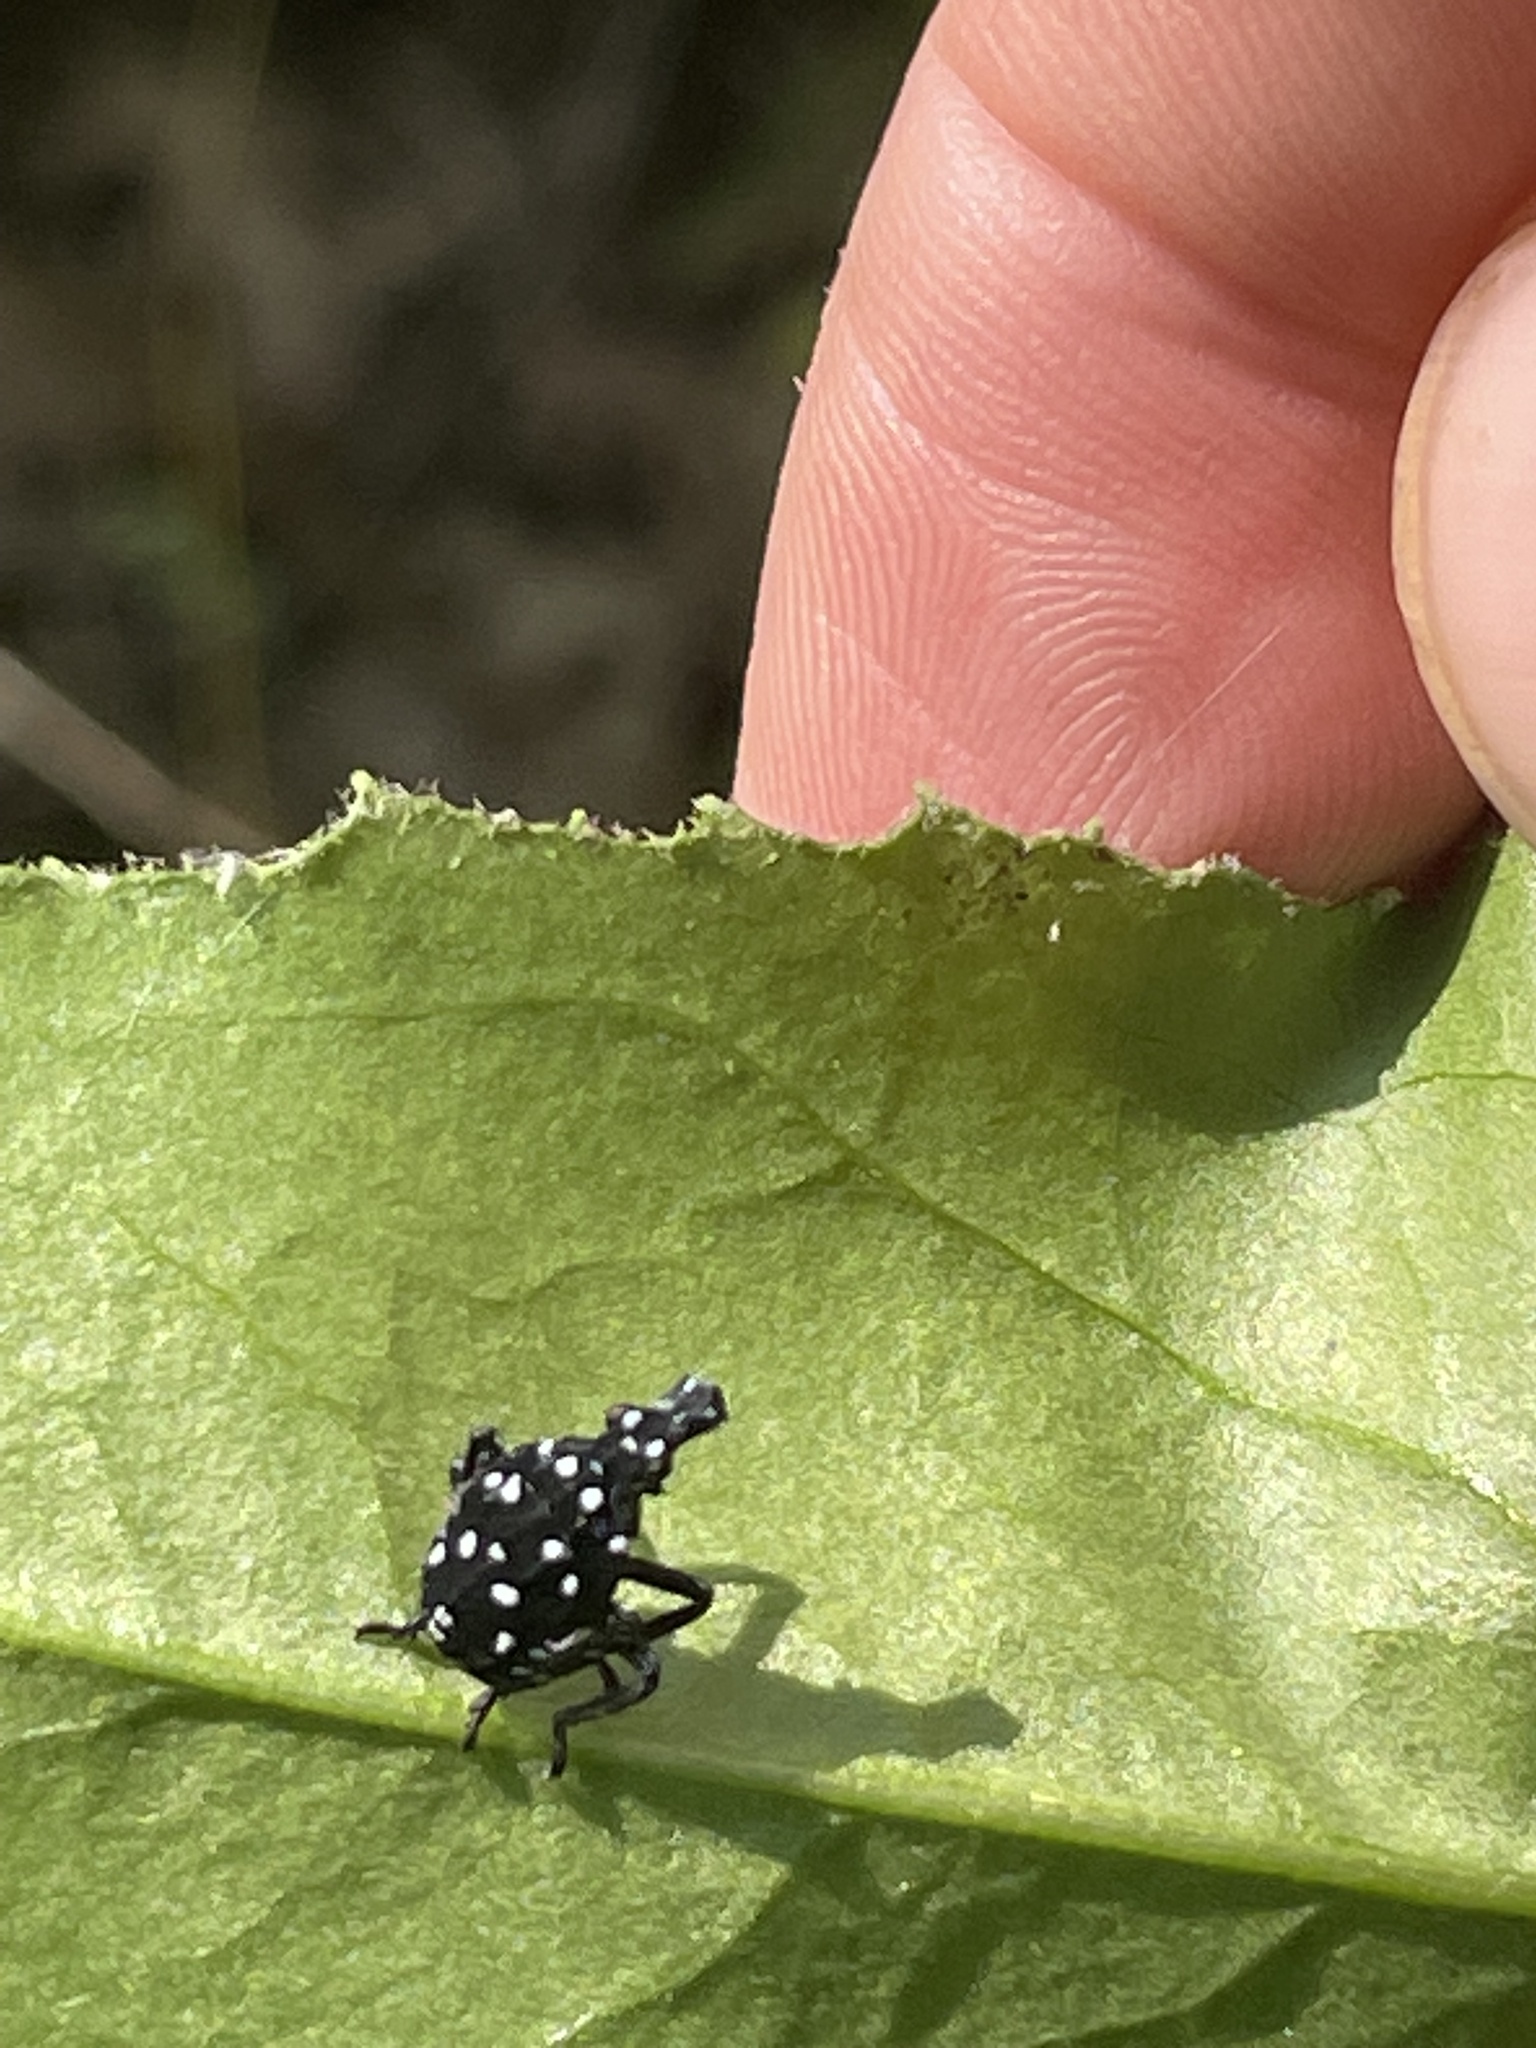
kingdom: Animalia
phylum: Arthropoda
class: Insecta
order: Hemiptera
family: Fulgoridae
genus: Lycorma
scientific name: Lycorma delicatula
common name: Spotted lanternfly
